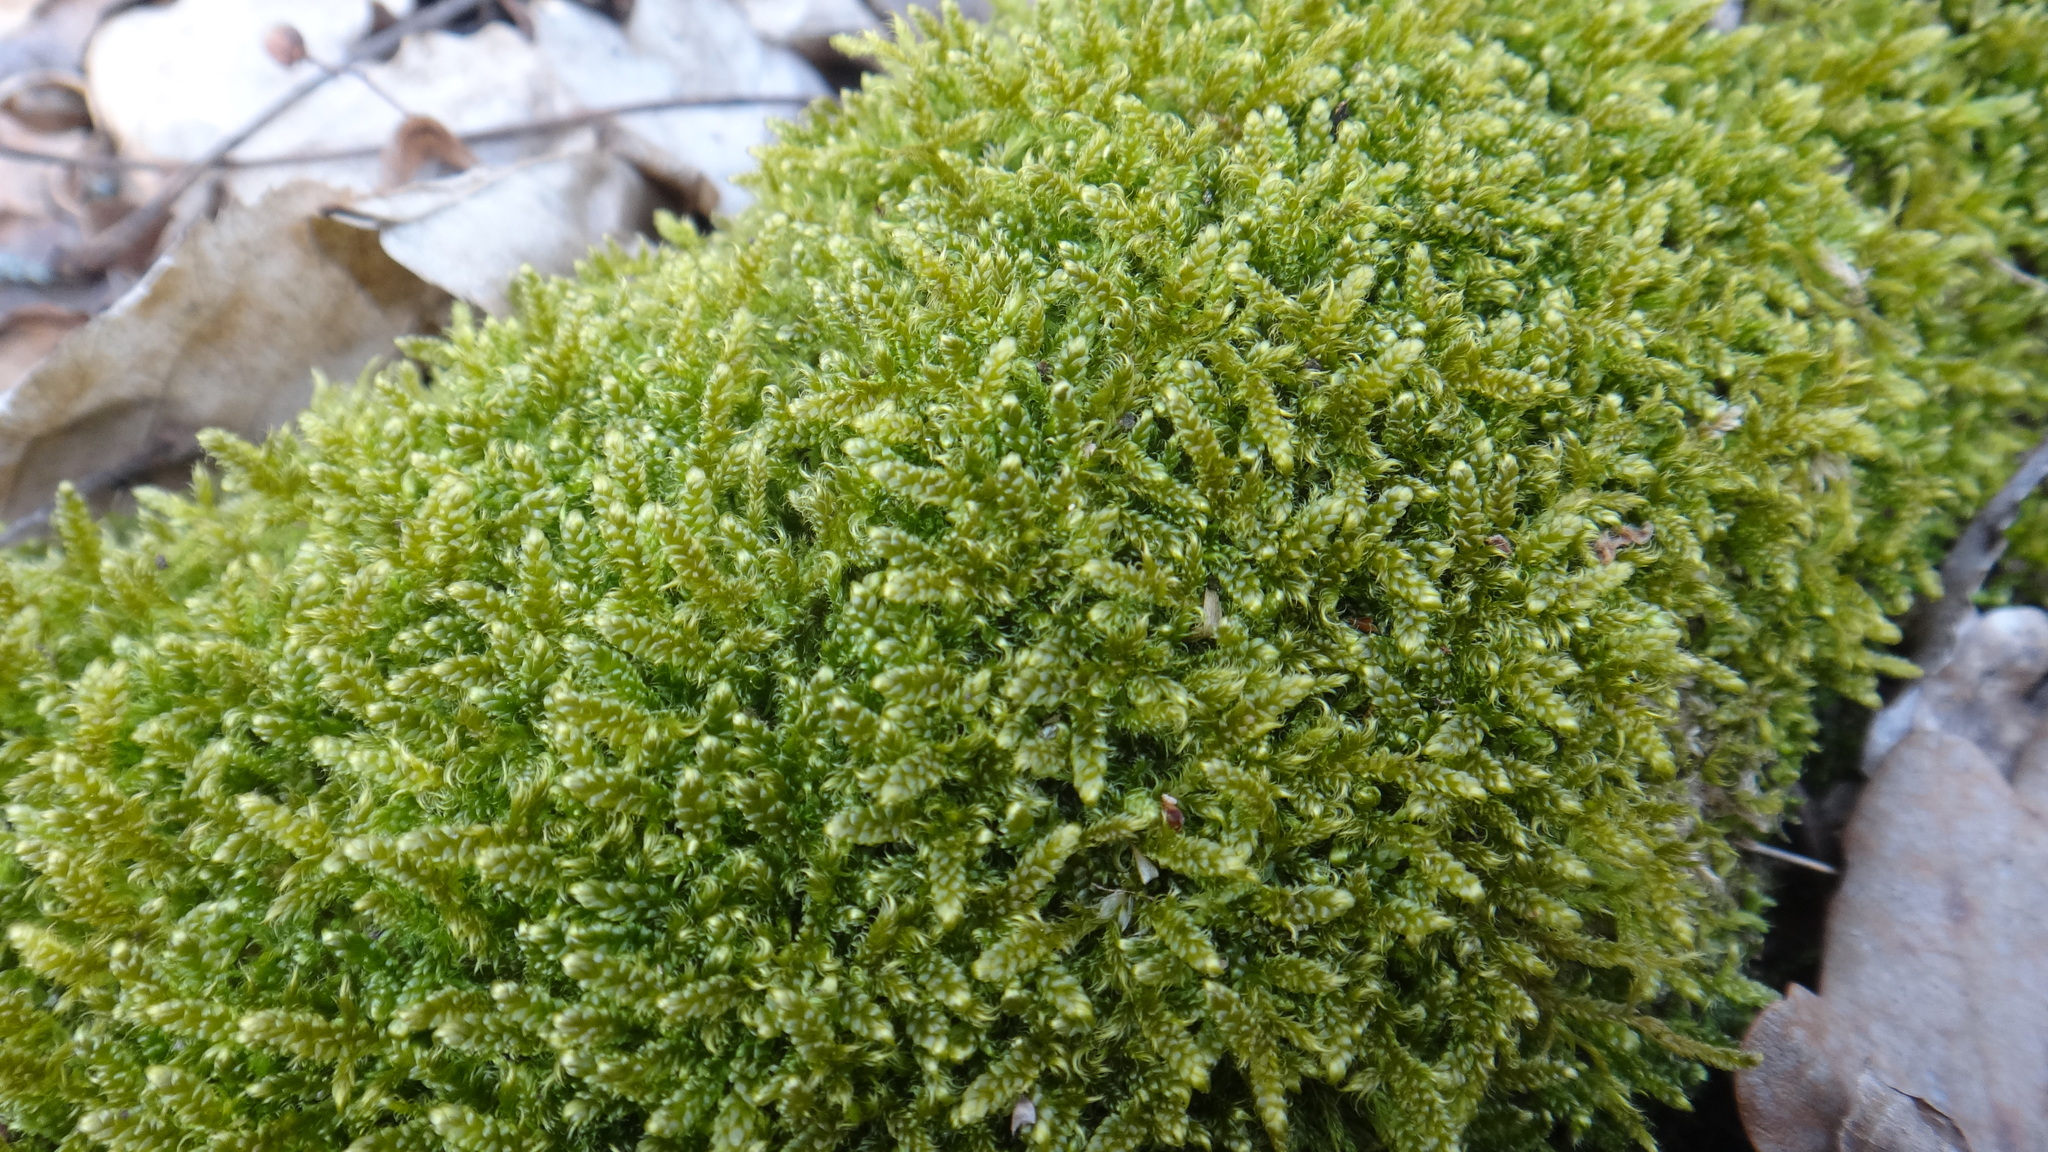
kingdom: Plantae
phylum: Bryophyta
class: Bryopsida
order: Hypnales
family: Hypnaceae
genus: Hypnum
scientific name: Hypnum cupressiforme
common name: Cypress-leaved plait-moss
